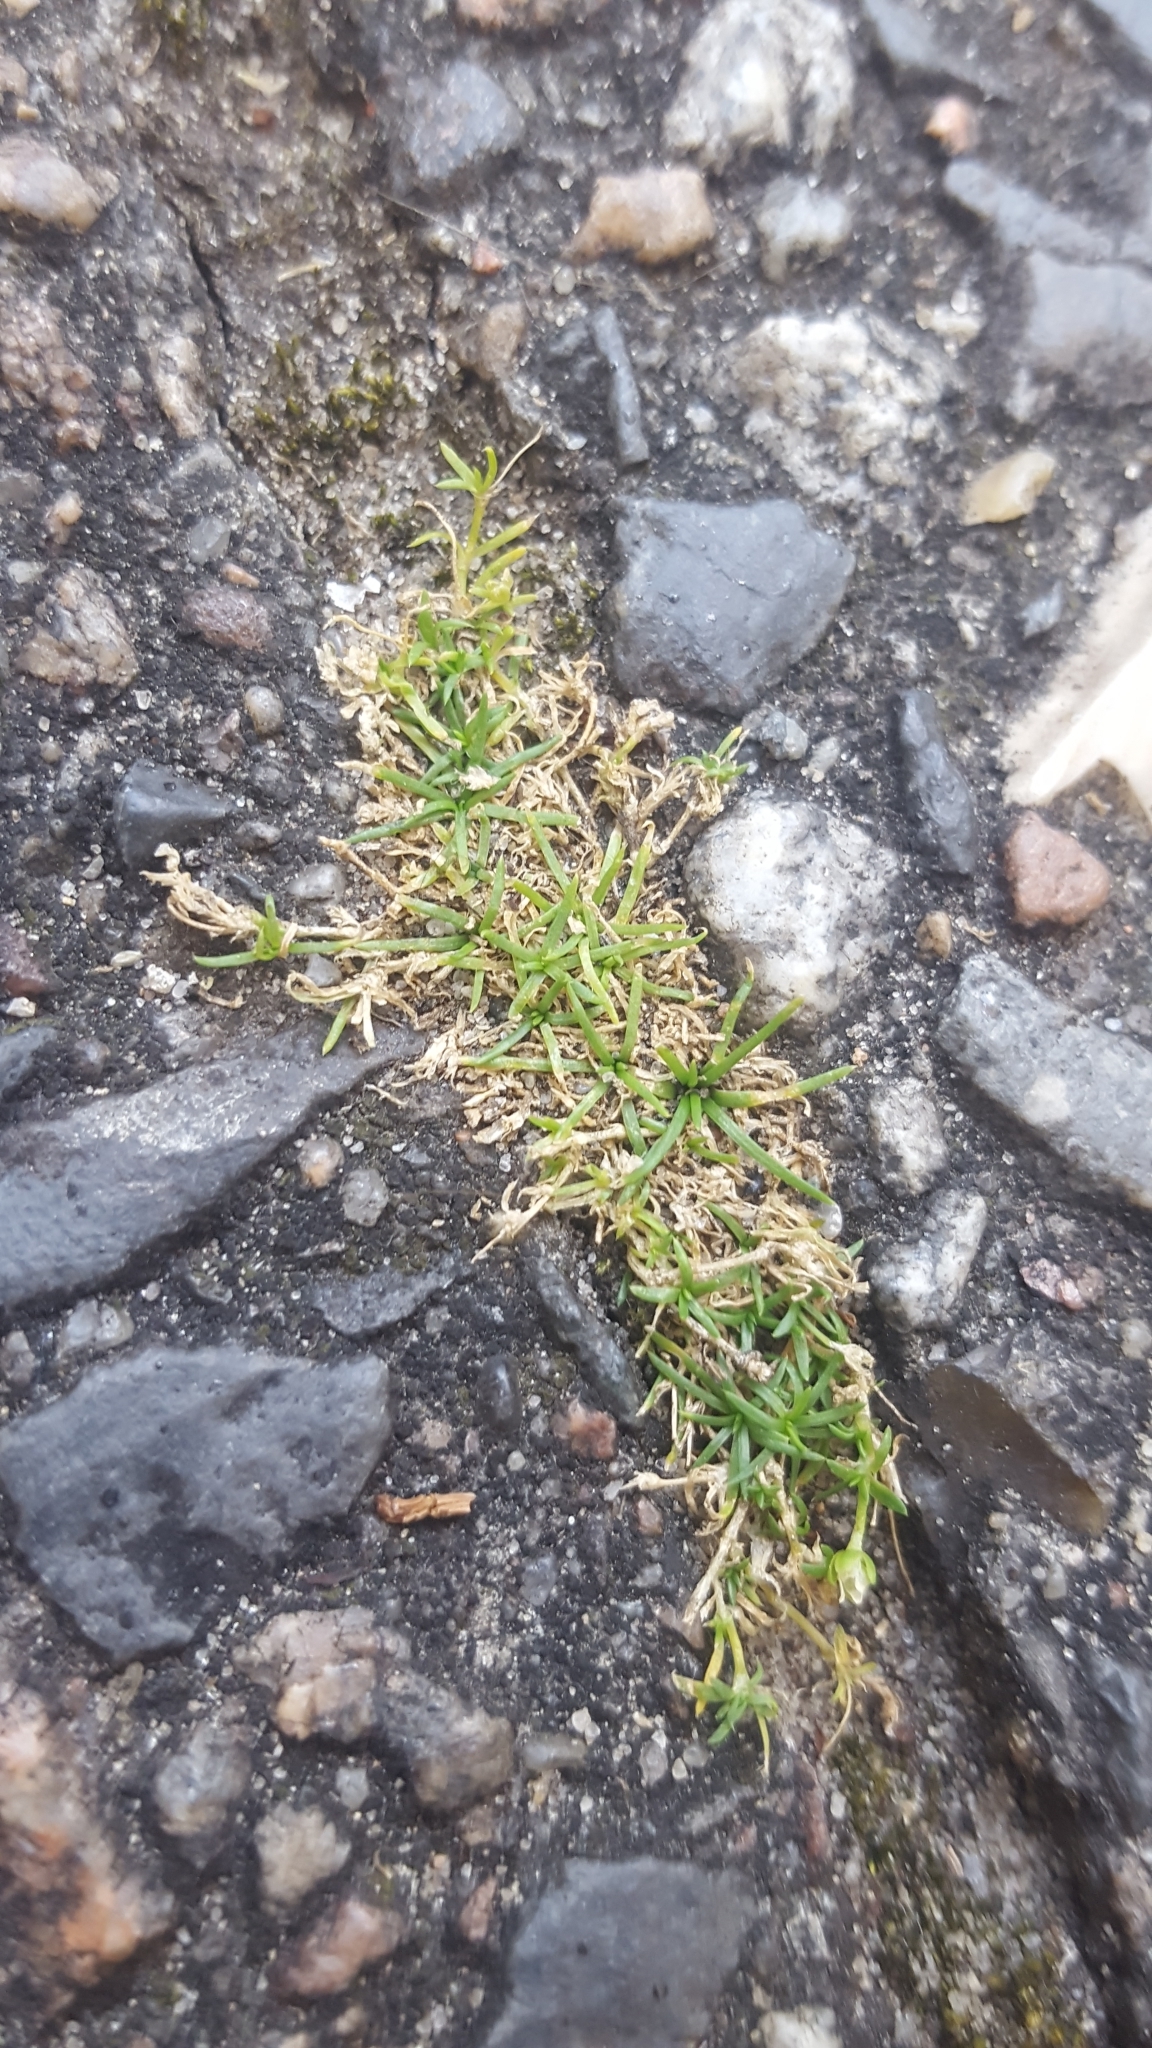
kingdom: Plantae
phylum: Tracheophyta
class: Magnoliopsida
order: Caryophyllales
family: Caryophyllaceae
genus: Sagina
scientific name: Sagina procumbens
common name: Procumbent pearlwort
